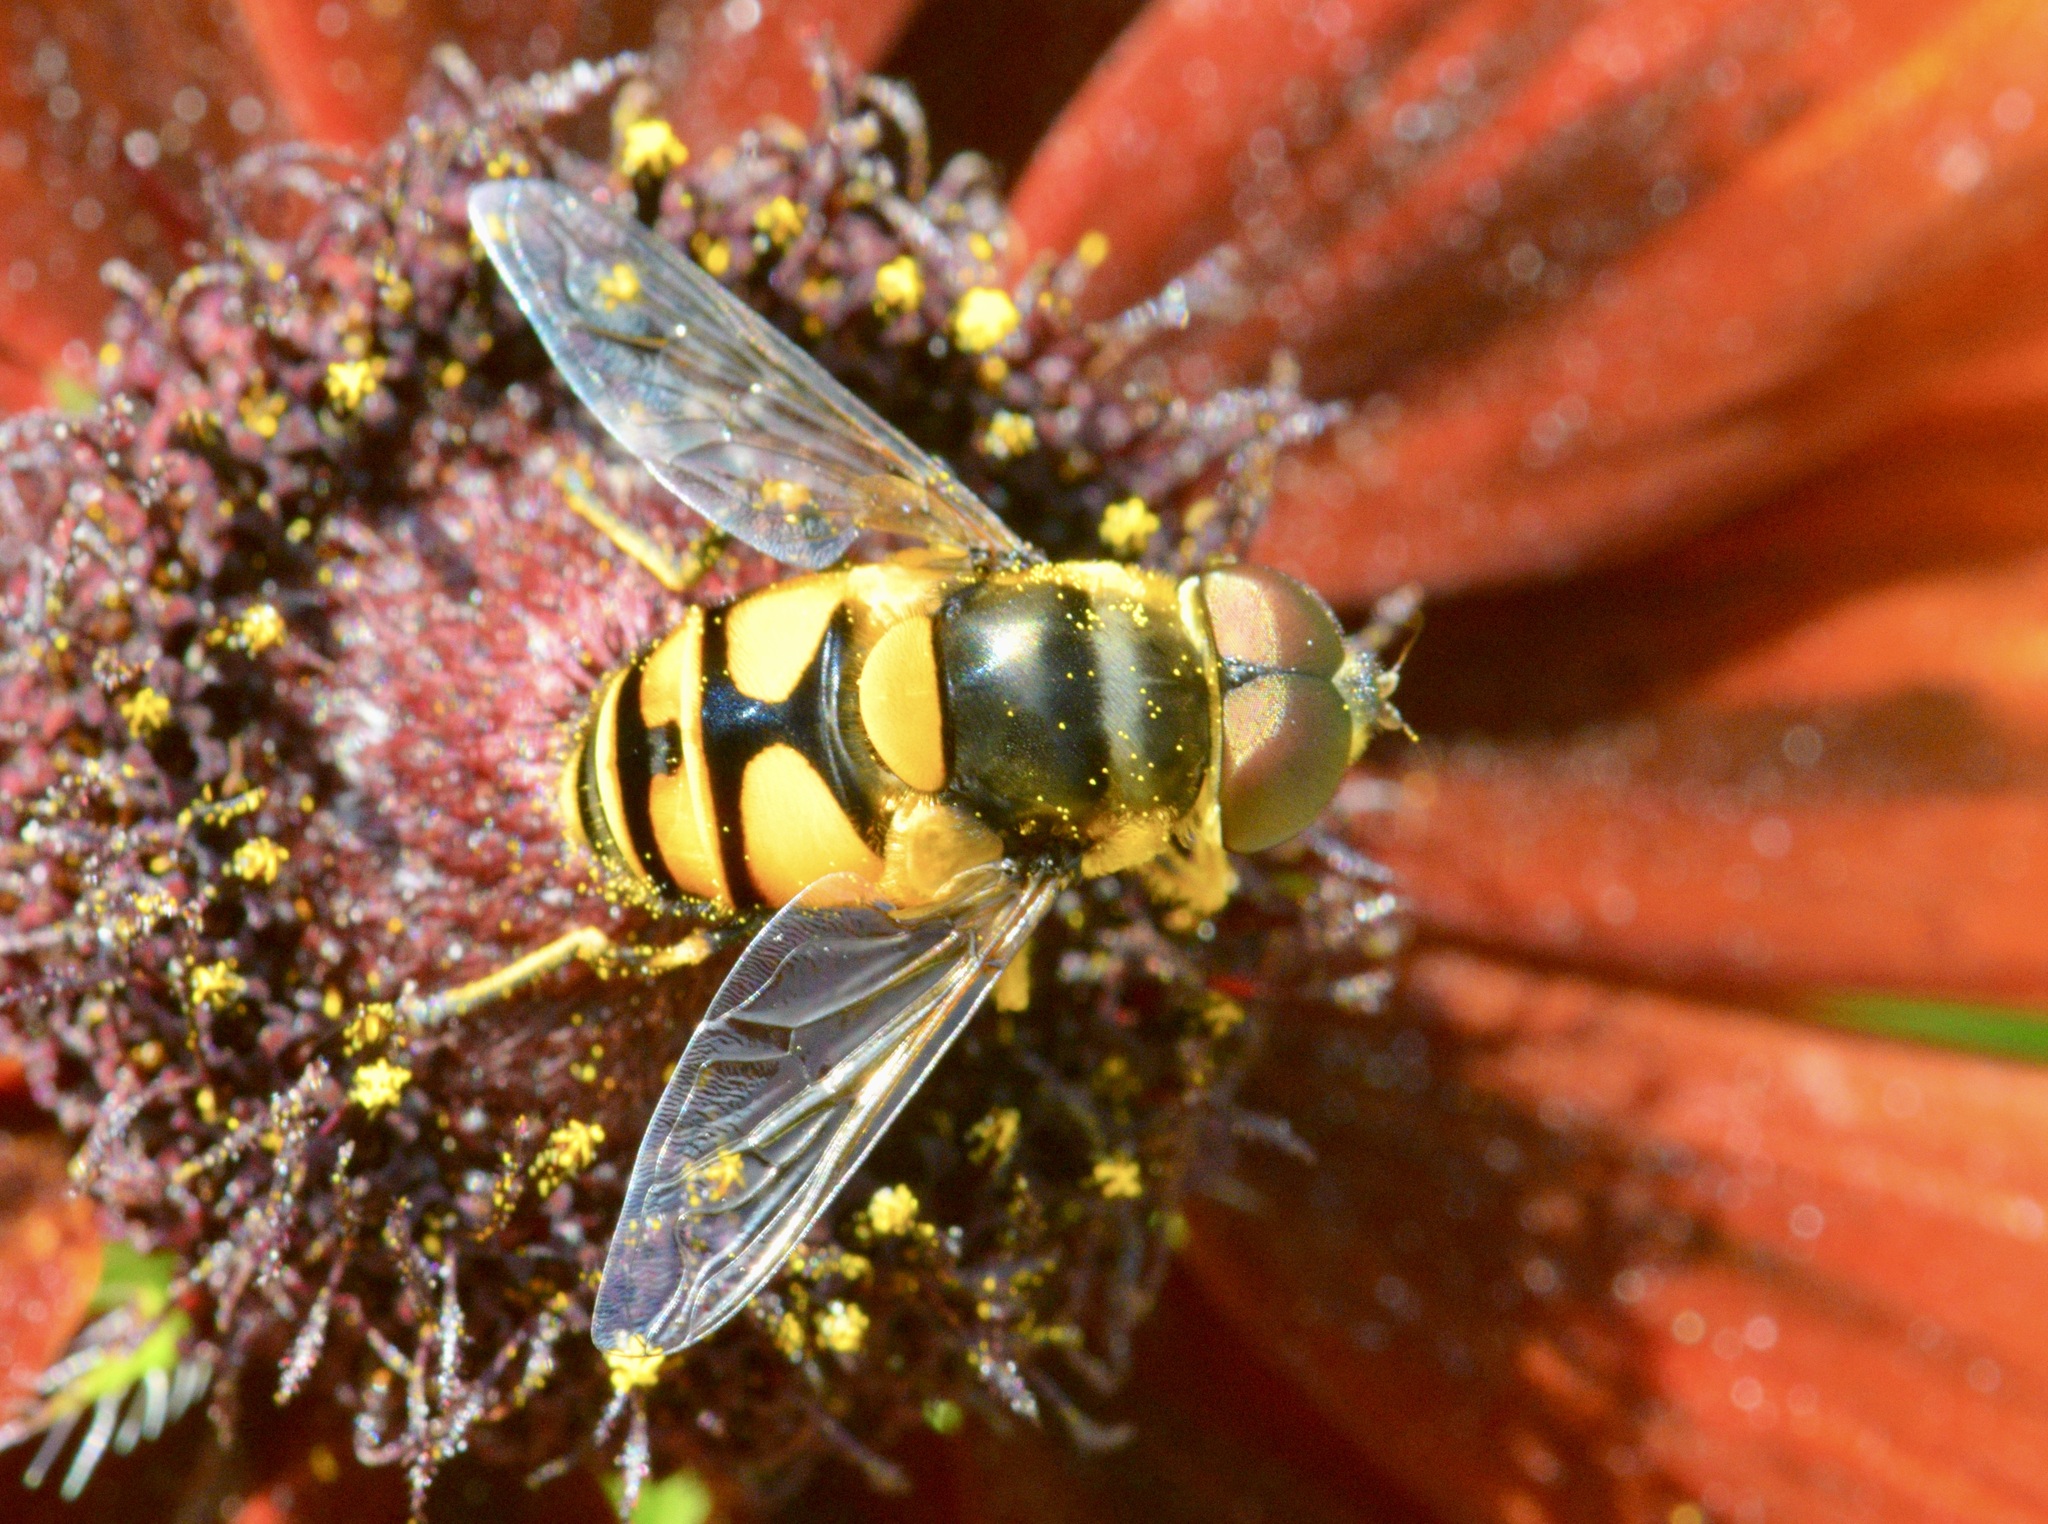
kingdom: Animalia
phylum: Arthropoda
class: Insecta
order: Diptera
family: Syrphidae
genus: Eristalis
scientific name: Eristalis transversa
